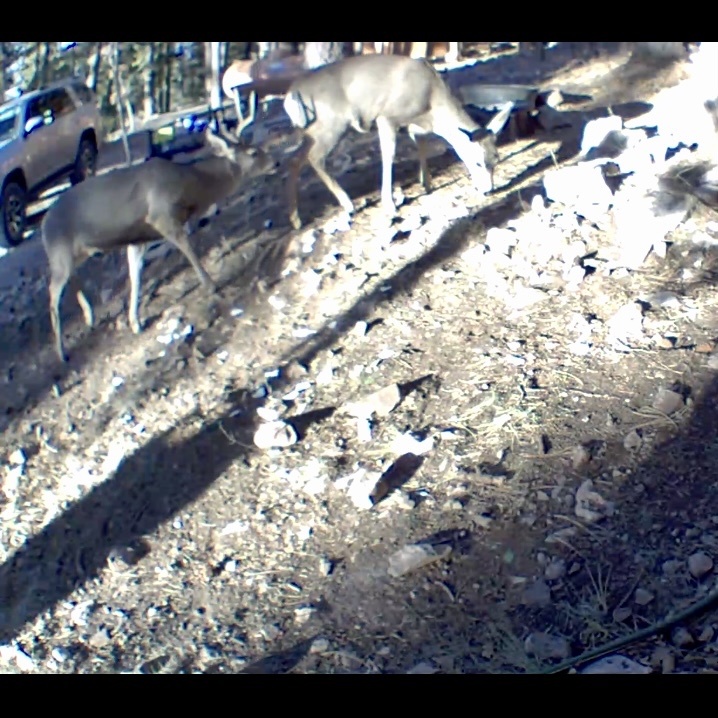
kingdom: Animalia
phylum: Chordata
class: Mammalia
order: Artiodactyla
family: Cervidae
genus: Odocoileus
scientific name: Odocoileus hemionus
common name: Mule deer
